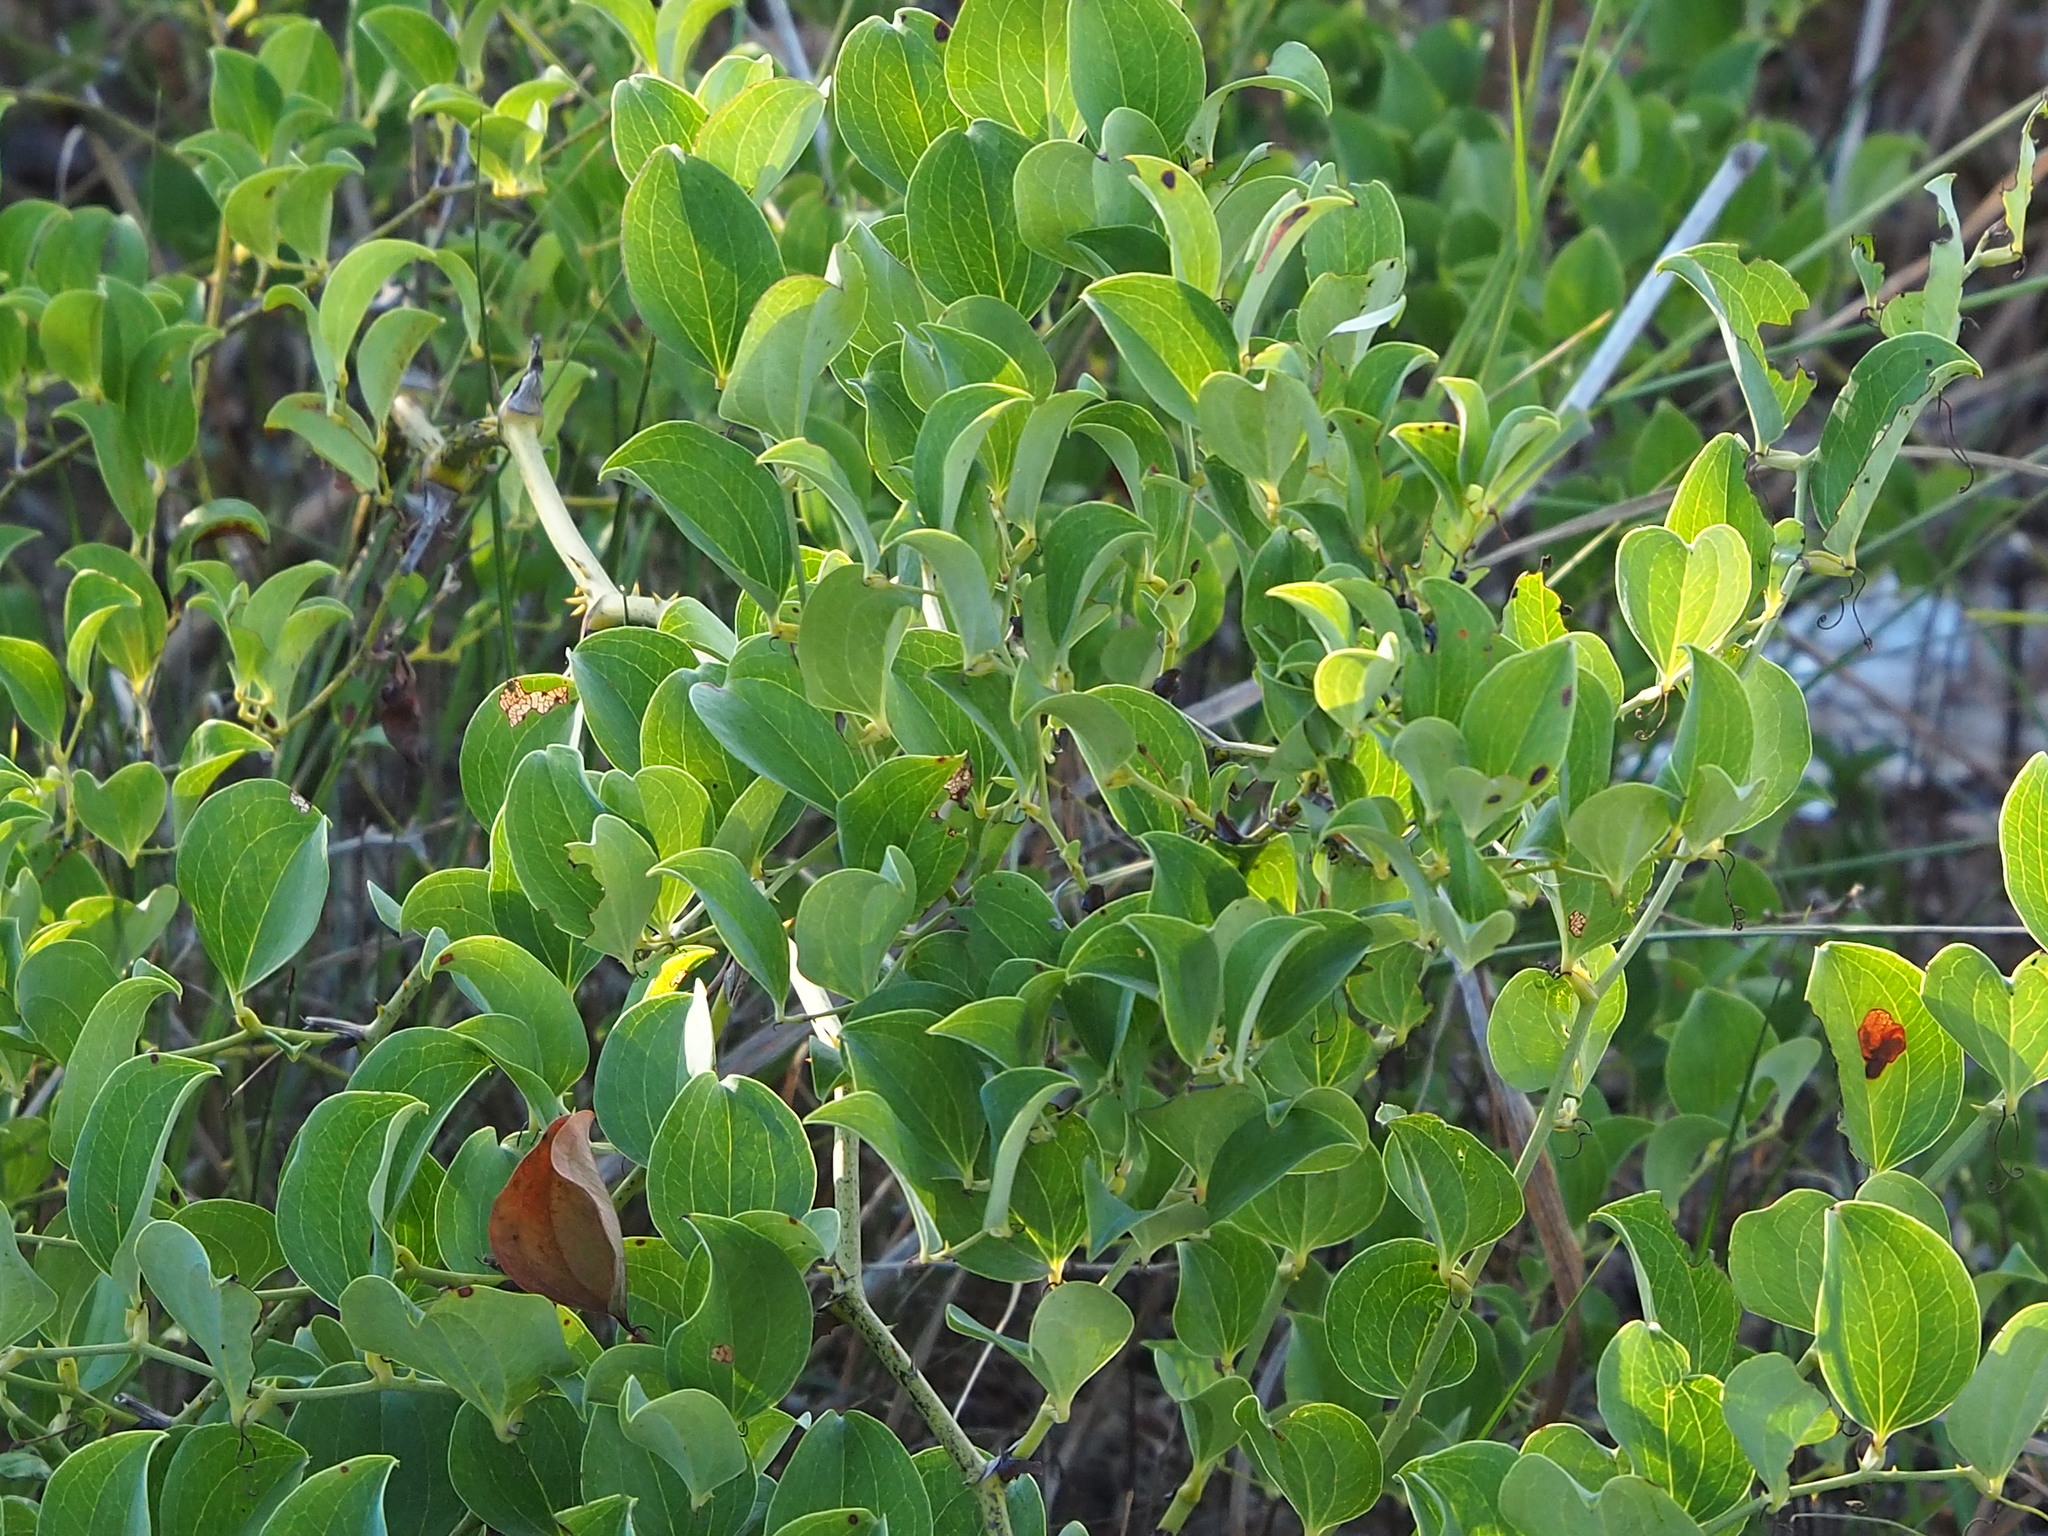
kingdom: Plantae
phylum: Tracheophyta
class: Liliopsida
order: Liliales
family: Smilacaceae
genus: Smilax
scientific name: Smilax china
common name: Chinaroot
